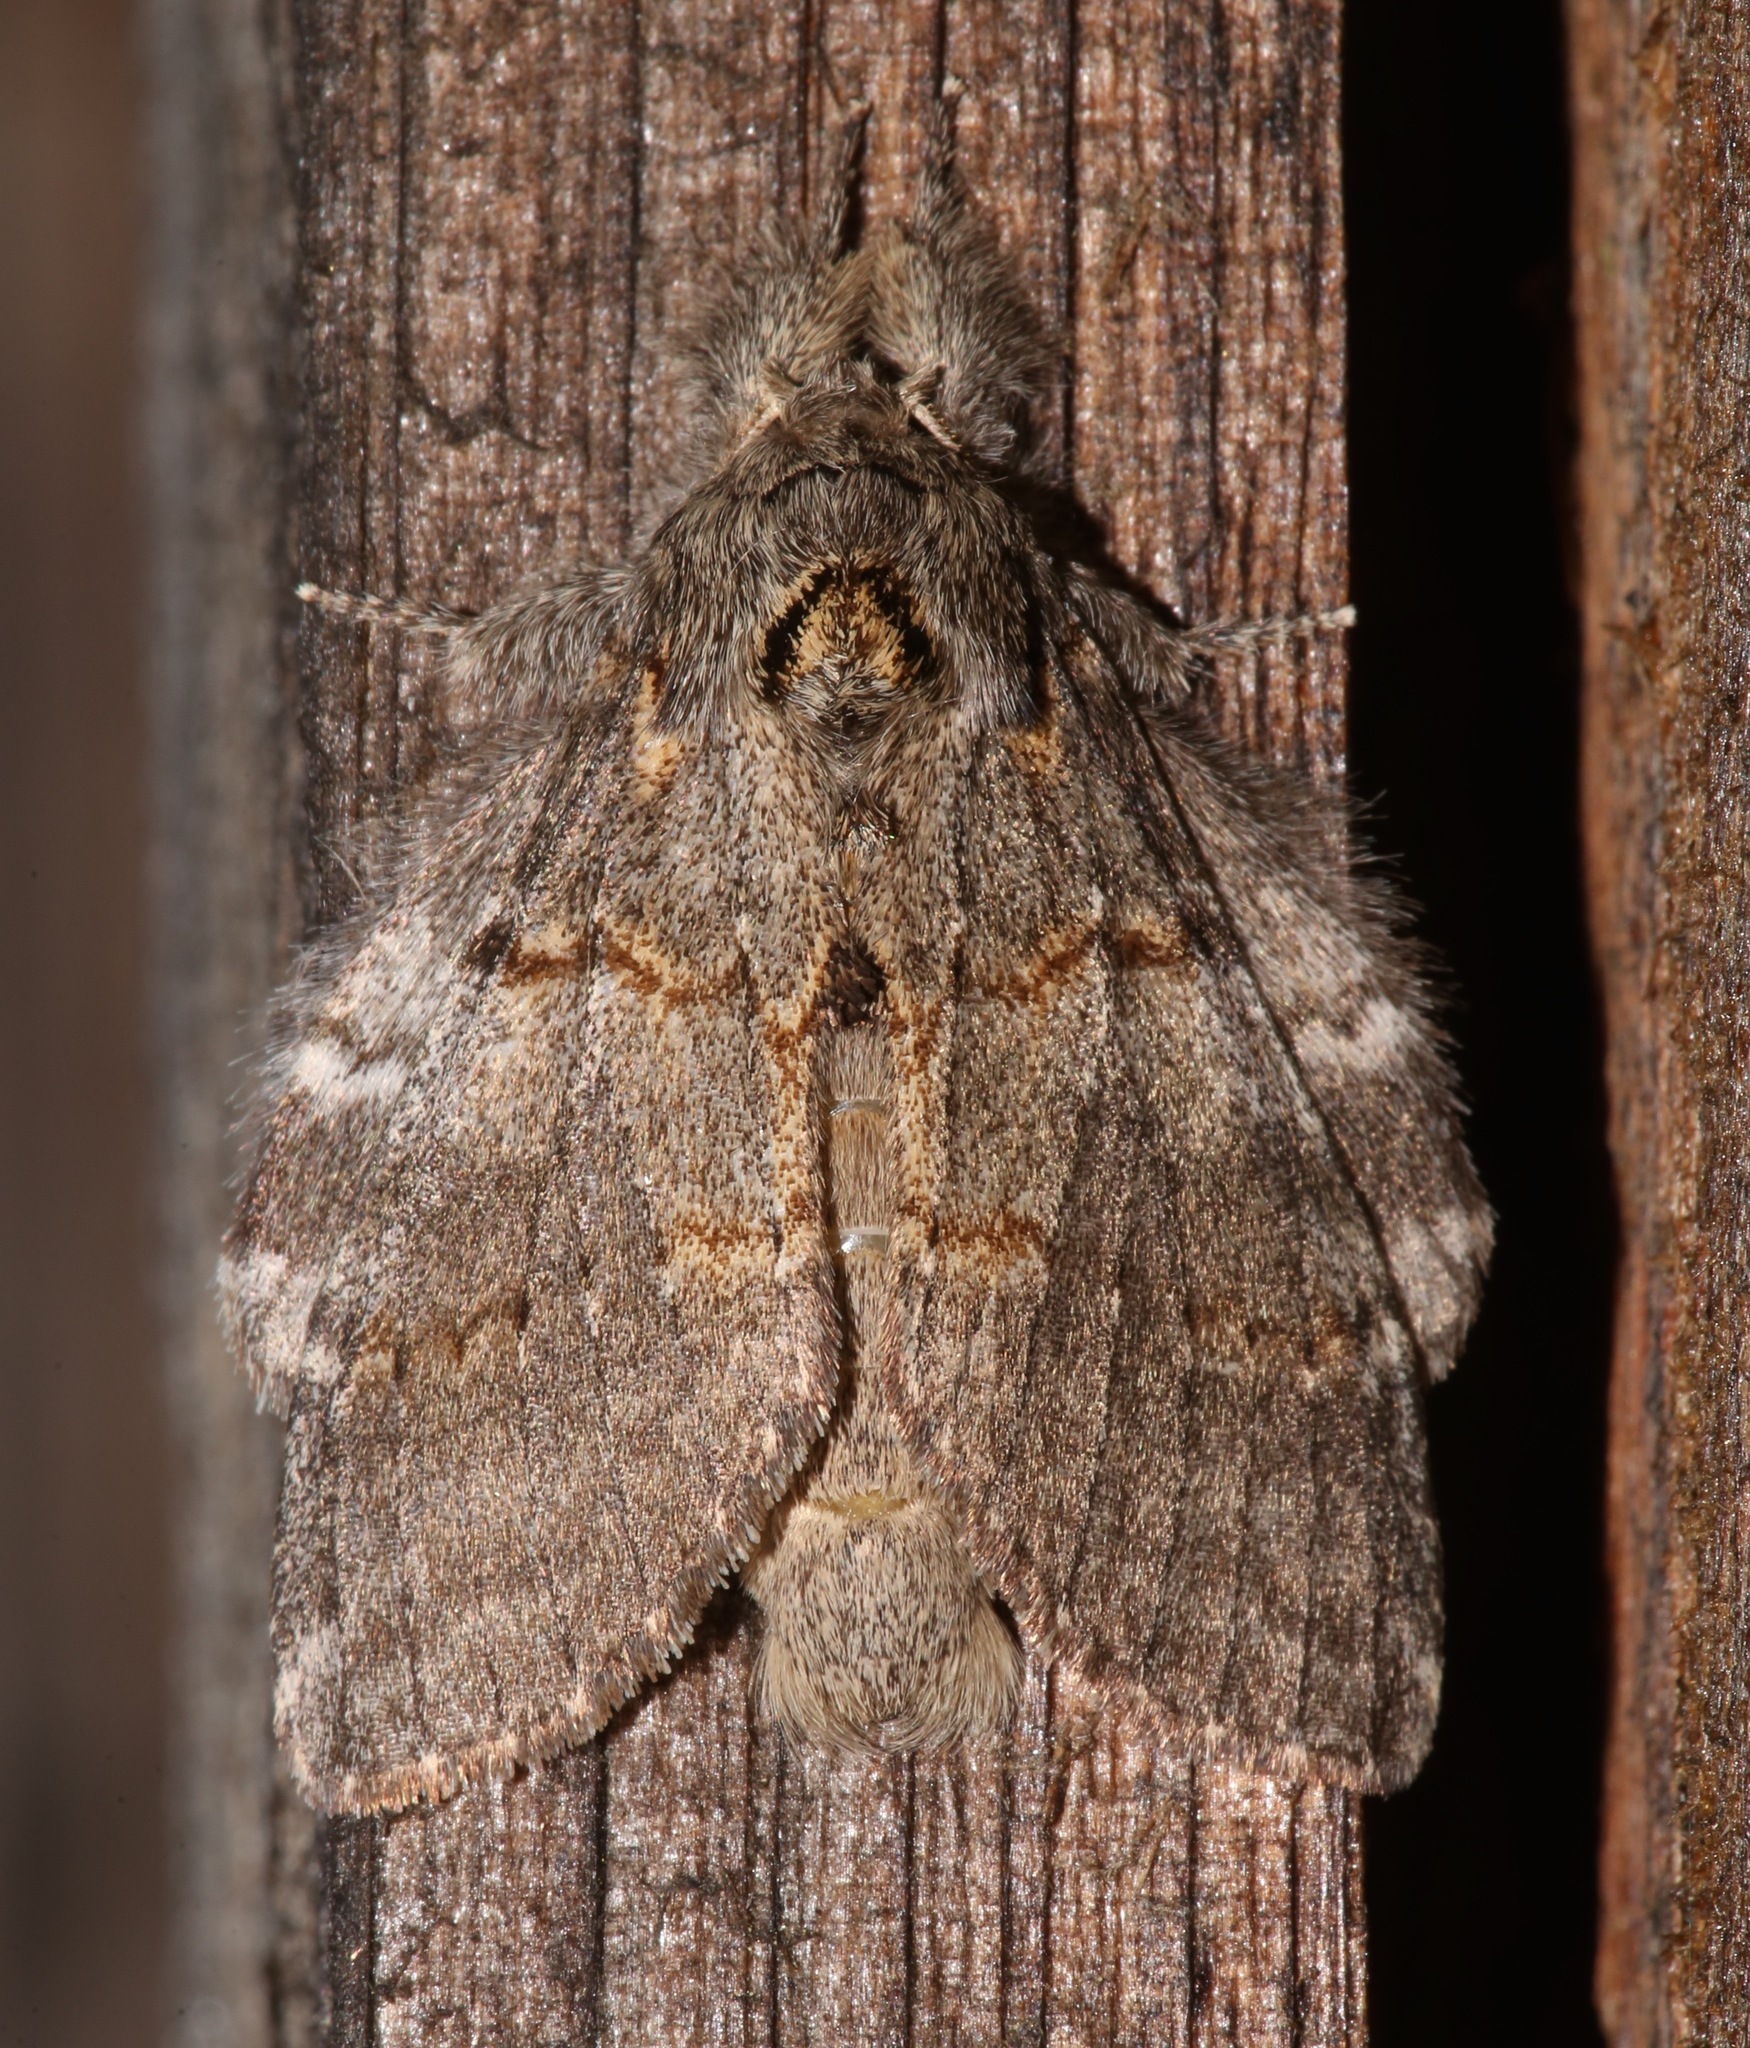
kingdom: Animalia
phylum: Arthropoda
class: Insecta
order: Lepidoptera
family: Notodontidae
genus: Peridea
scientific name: Peridea angulosa
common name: Angulose prominent
